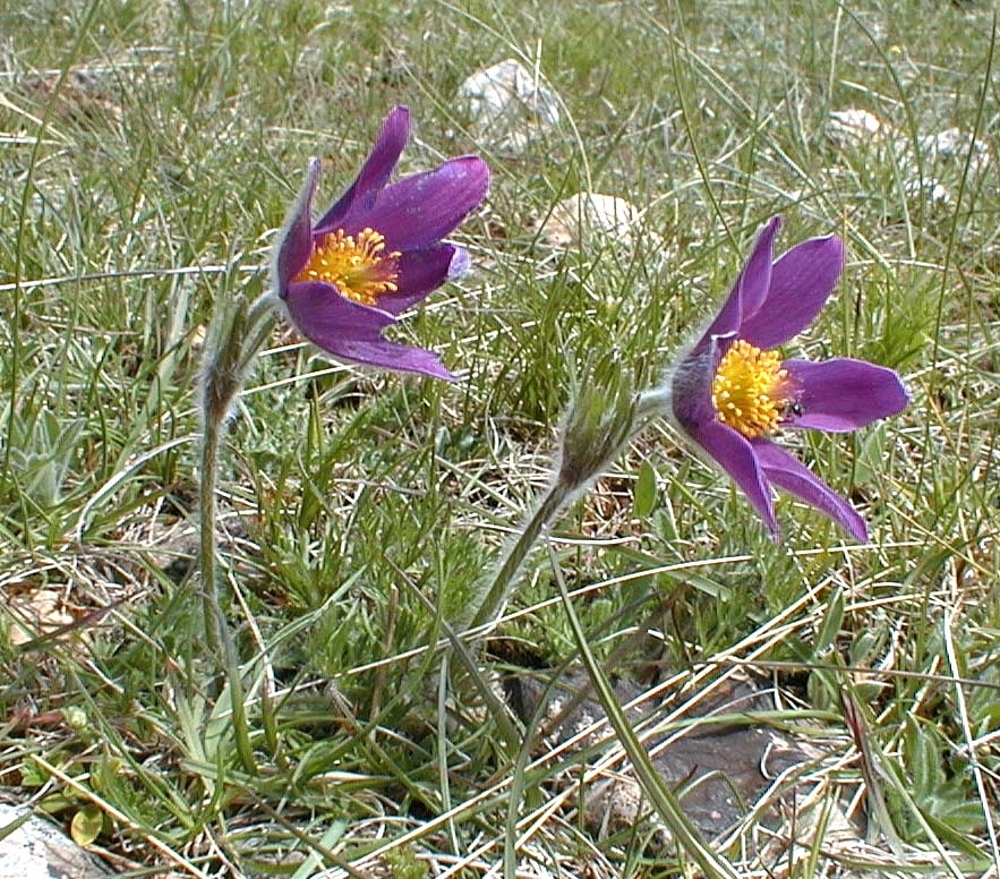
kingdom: Plantae
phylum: Tracheophyta
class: Magnoliopsida
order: Ranunculales
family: Ranunculaceae
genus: Pulsatilla
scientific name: Pulsatilla vulgaris
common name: Pasqueflower
